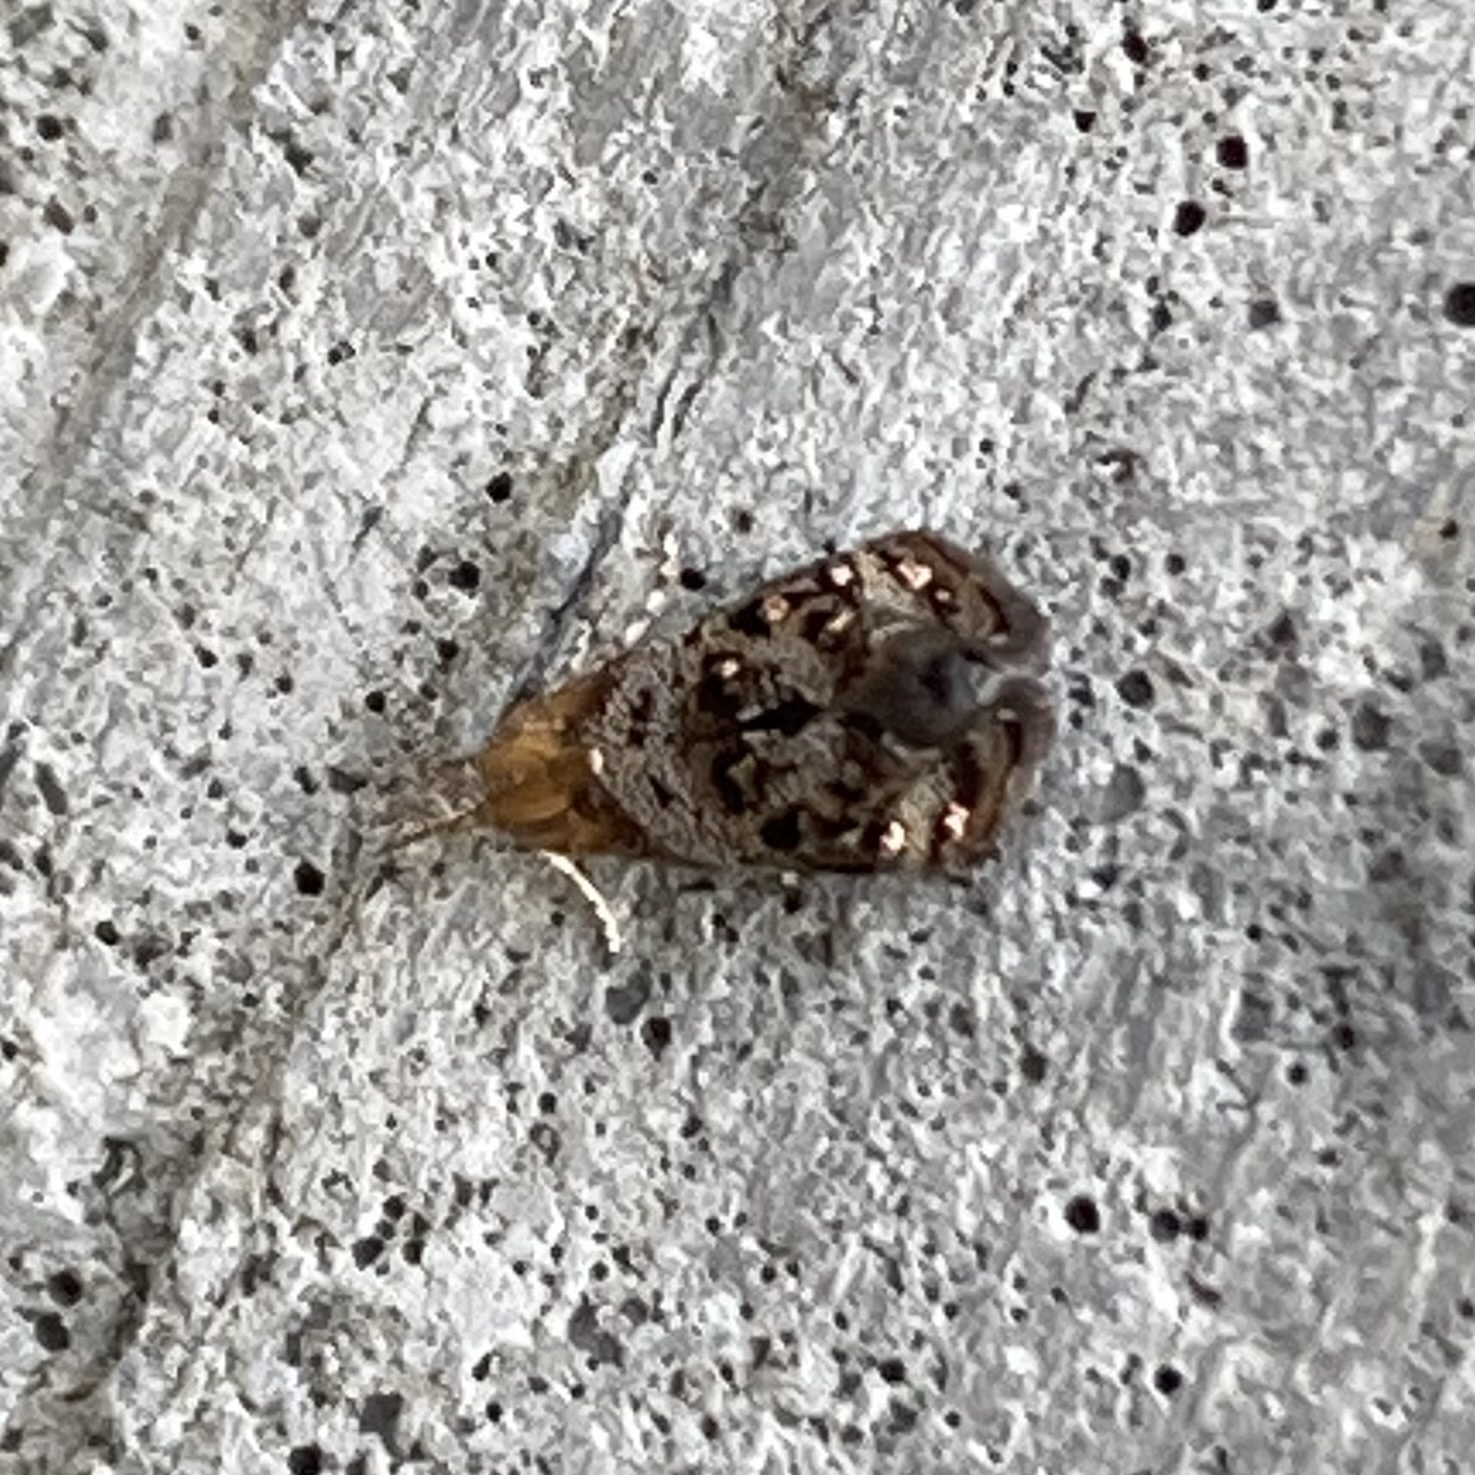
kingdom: Animalia
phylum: Arthropoda
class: Insecta
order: Lepidoptera
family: Choreutidae
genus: Tebenna
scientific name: Tebenna gnaphaliella
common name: Everlasting tebenna moth
